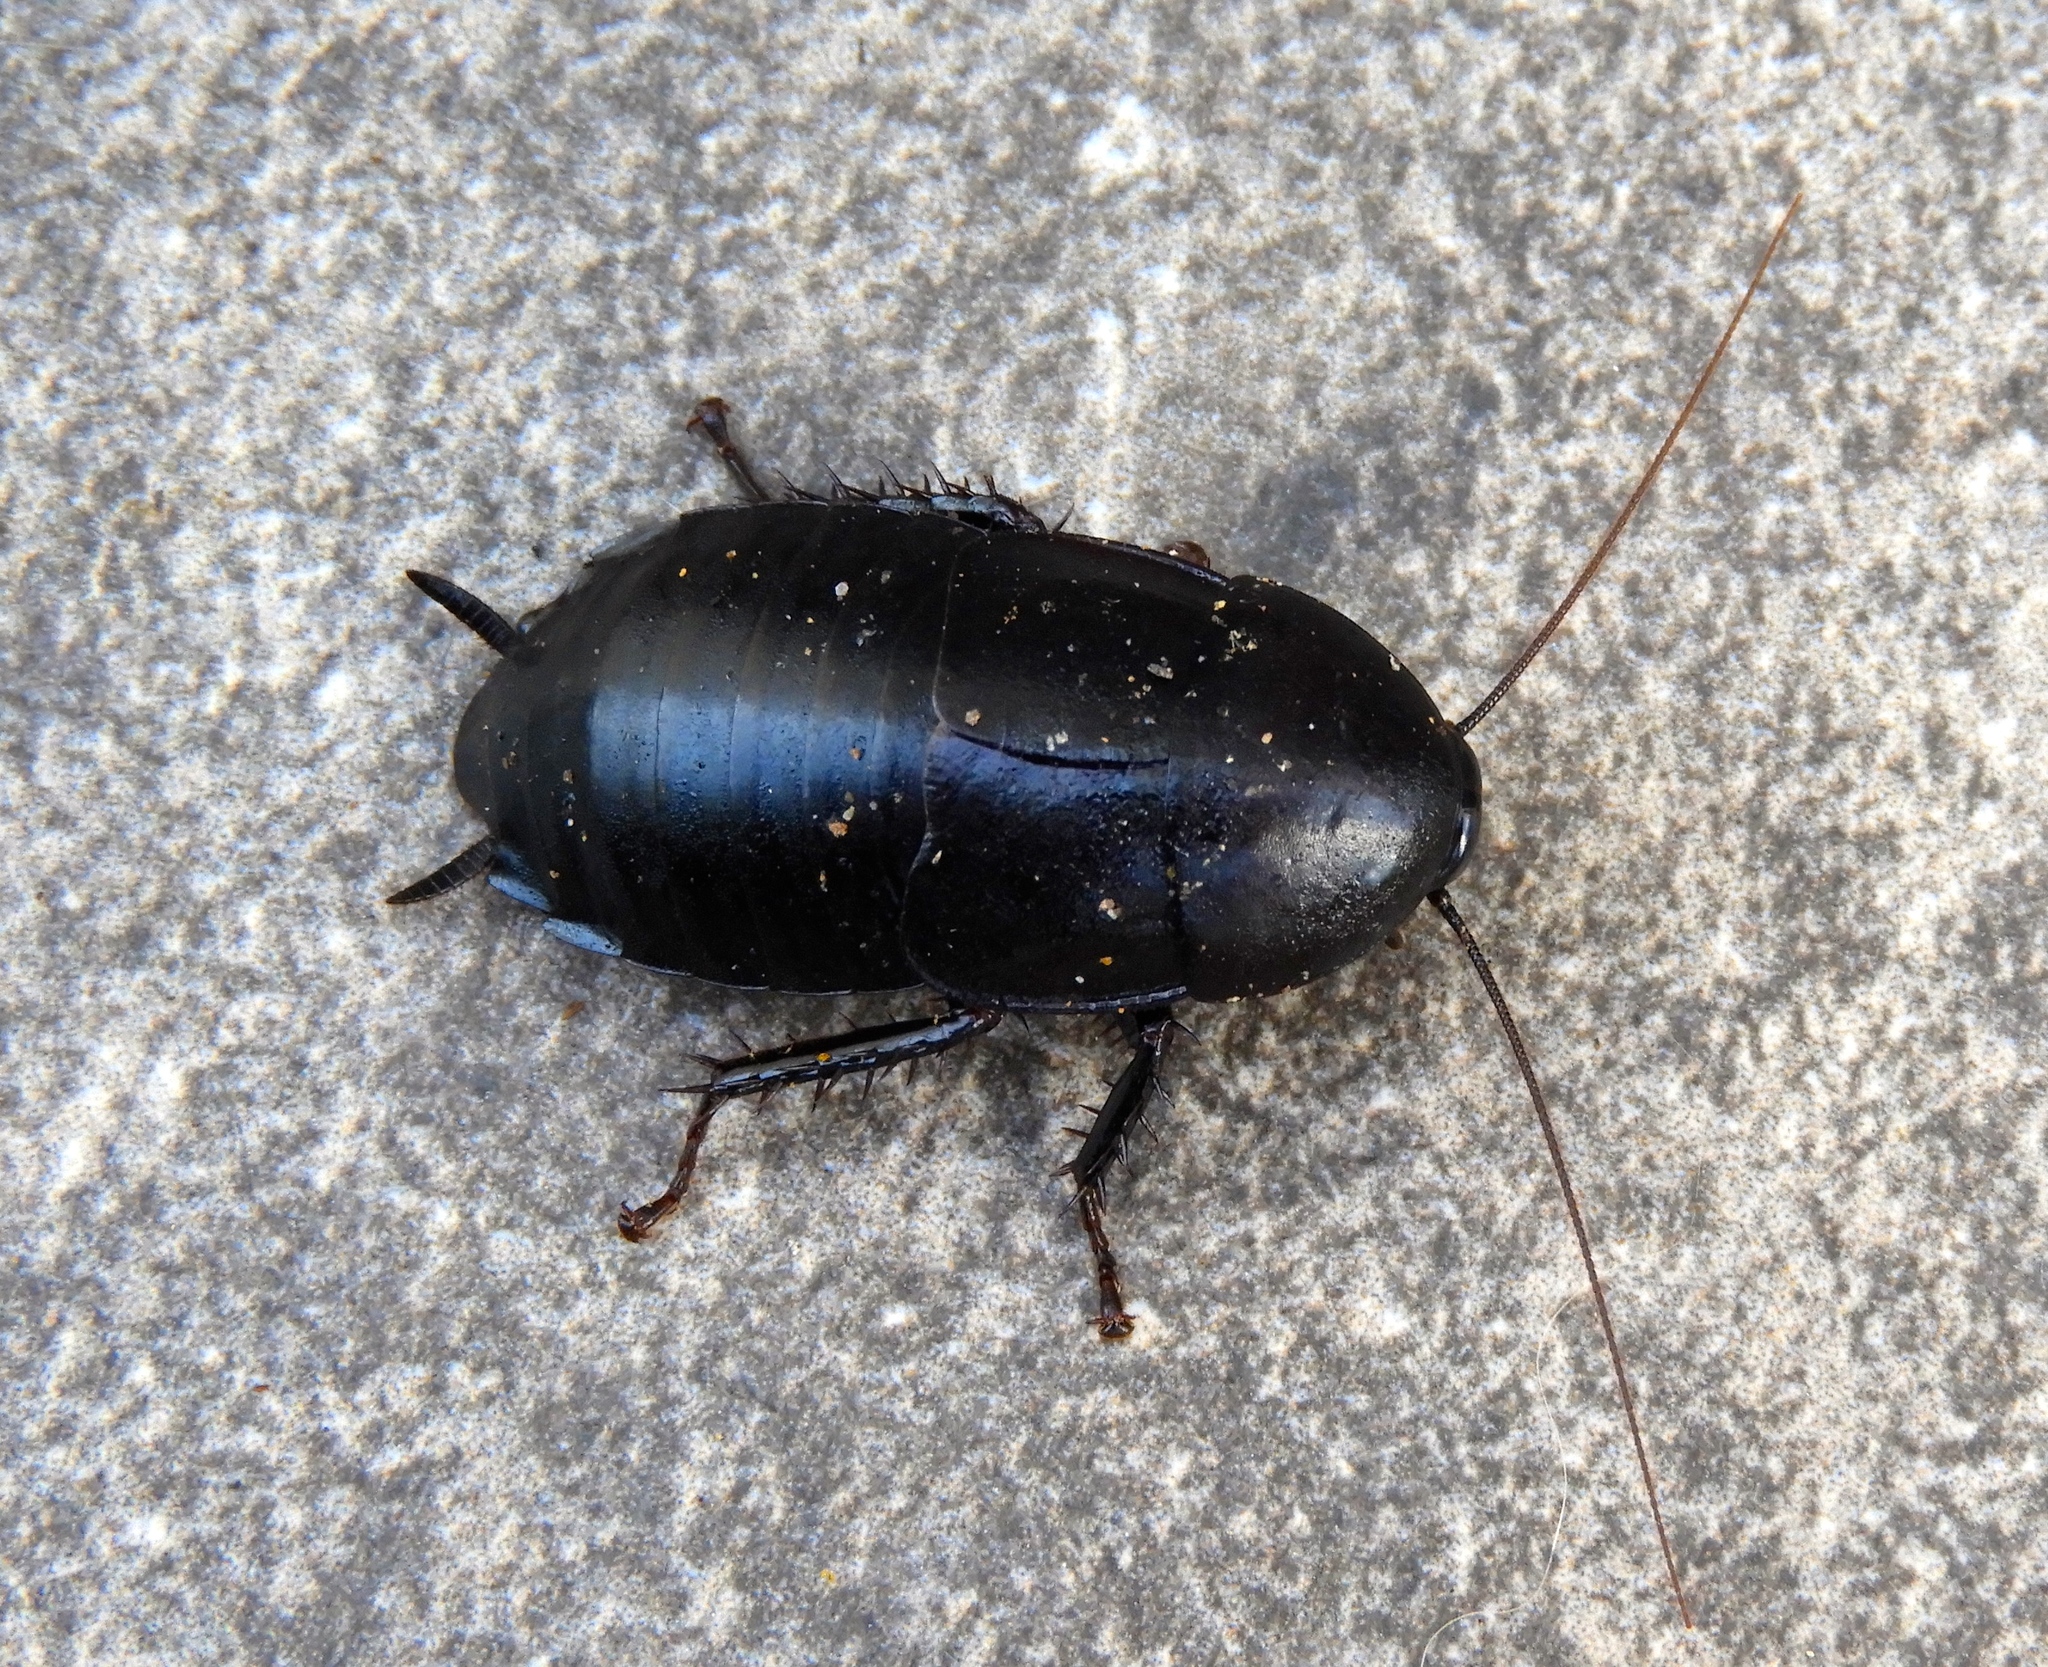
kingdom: Animalia
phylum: Arthropoda
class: Insecta
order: Blattodea
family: Ectobiidae
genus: Nyctibora
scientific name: Nyctibora tetrasticta
